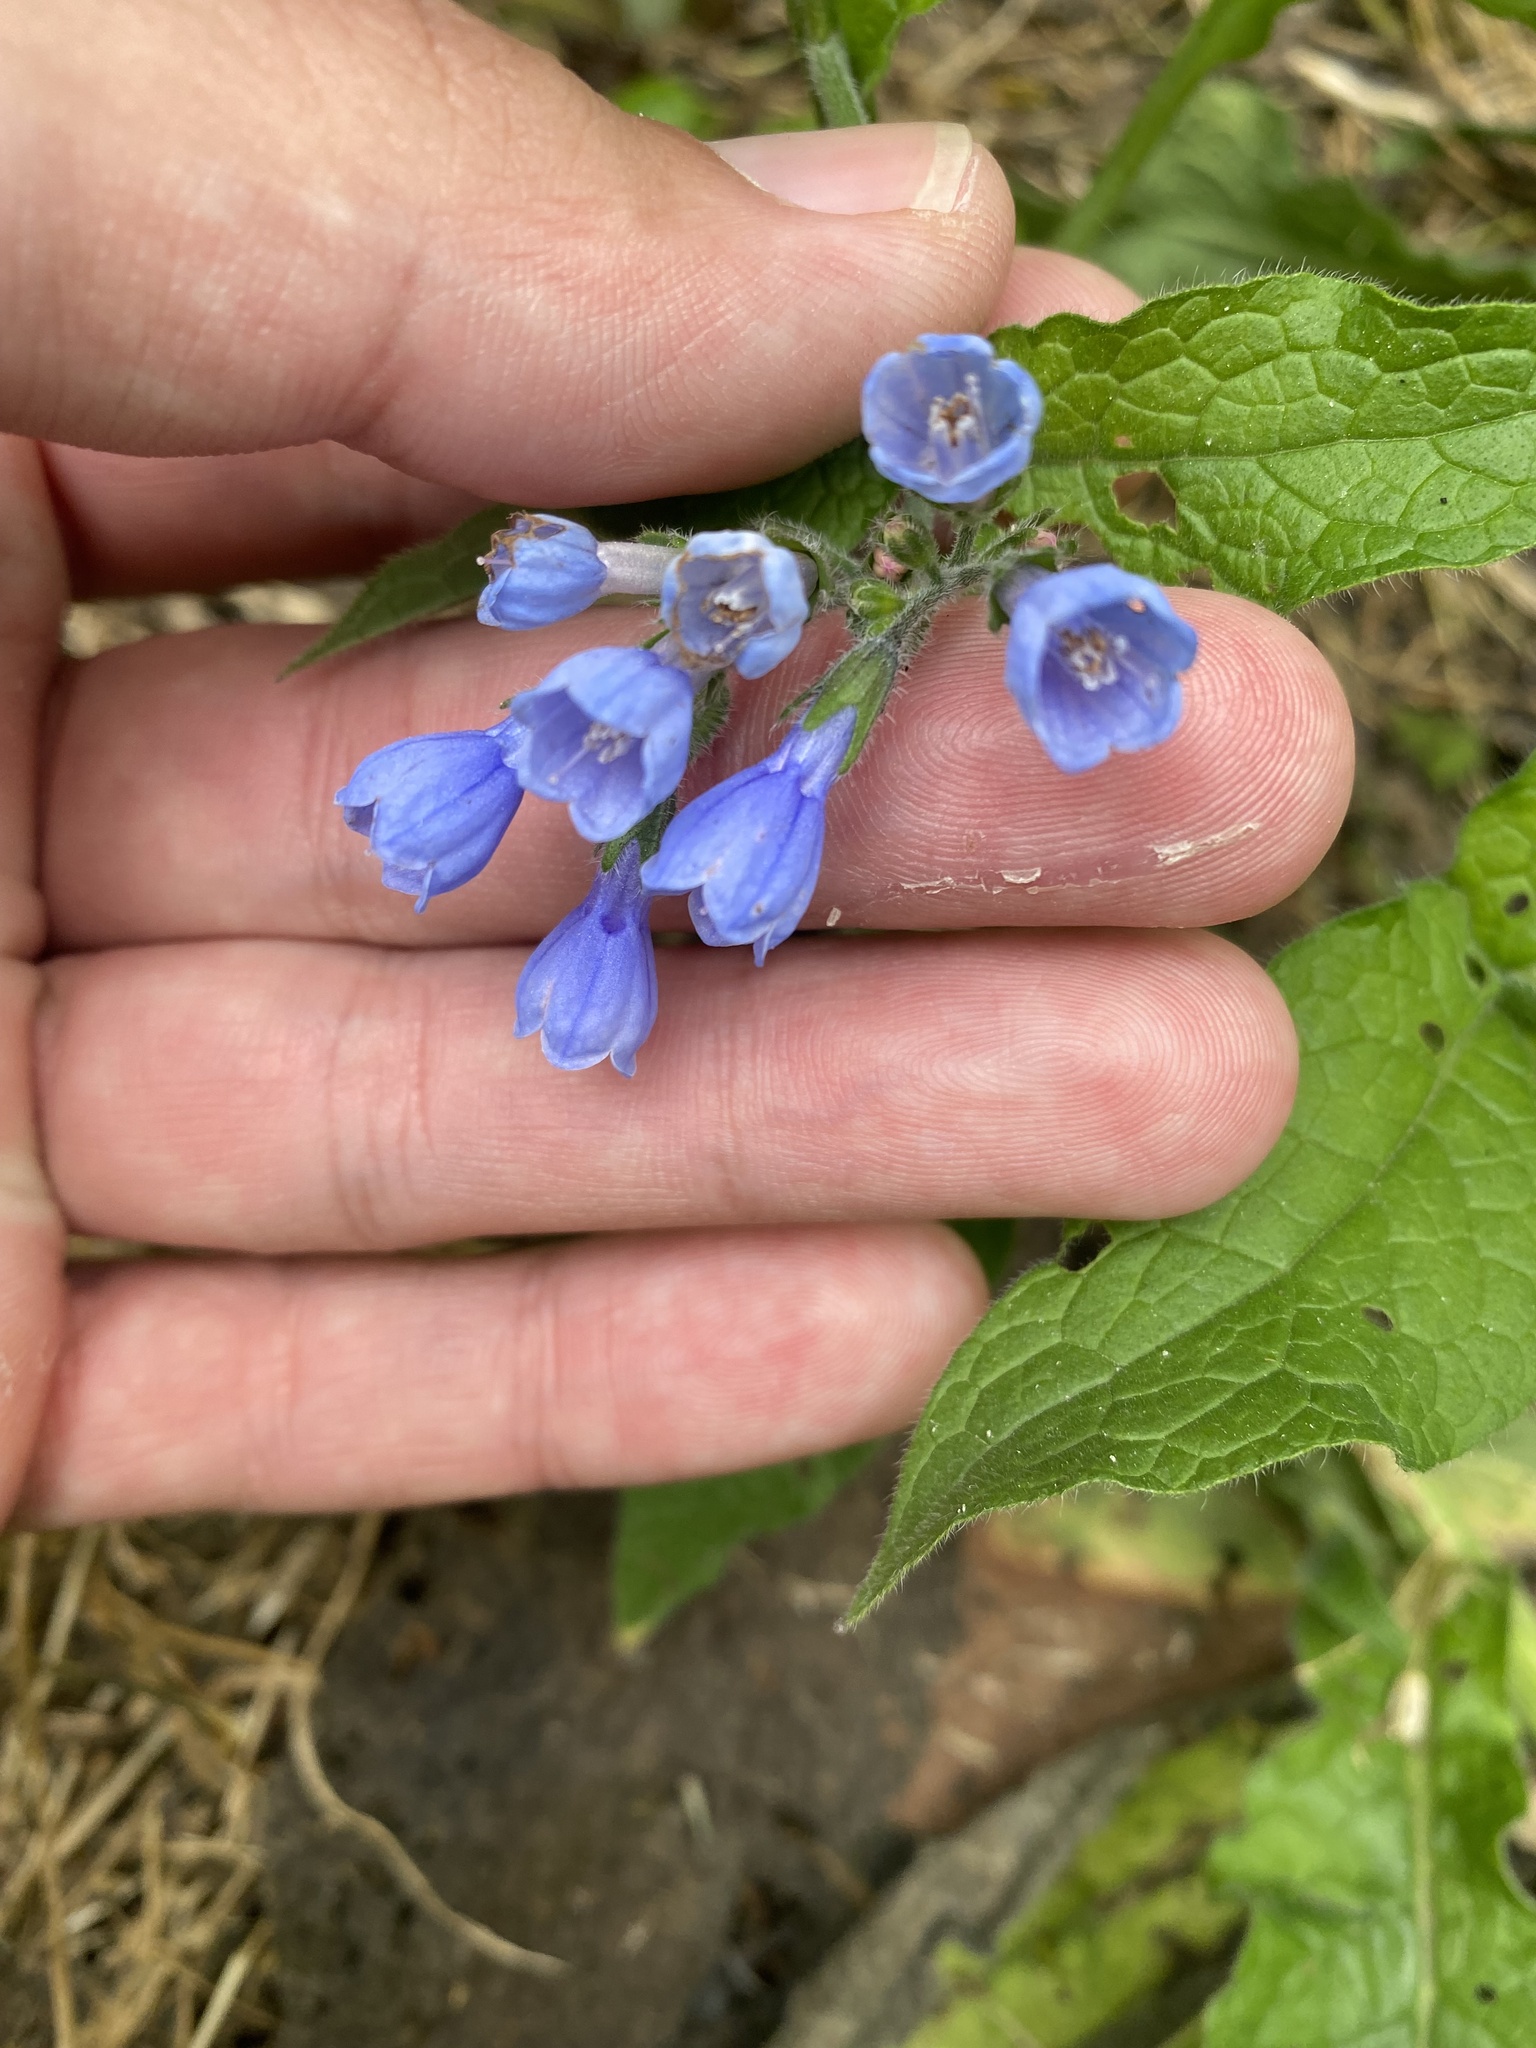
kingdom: Plantae
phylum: Tracheophyta
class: Magnoliopsida
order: Boraginales
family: Boraginaceae
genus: Symphytum
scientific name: Symphytum caucasicum
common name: Caucasian comfrey
